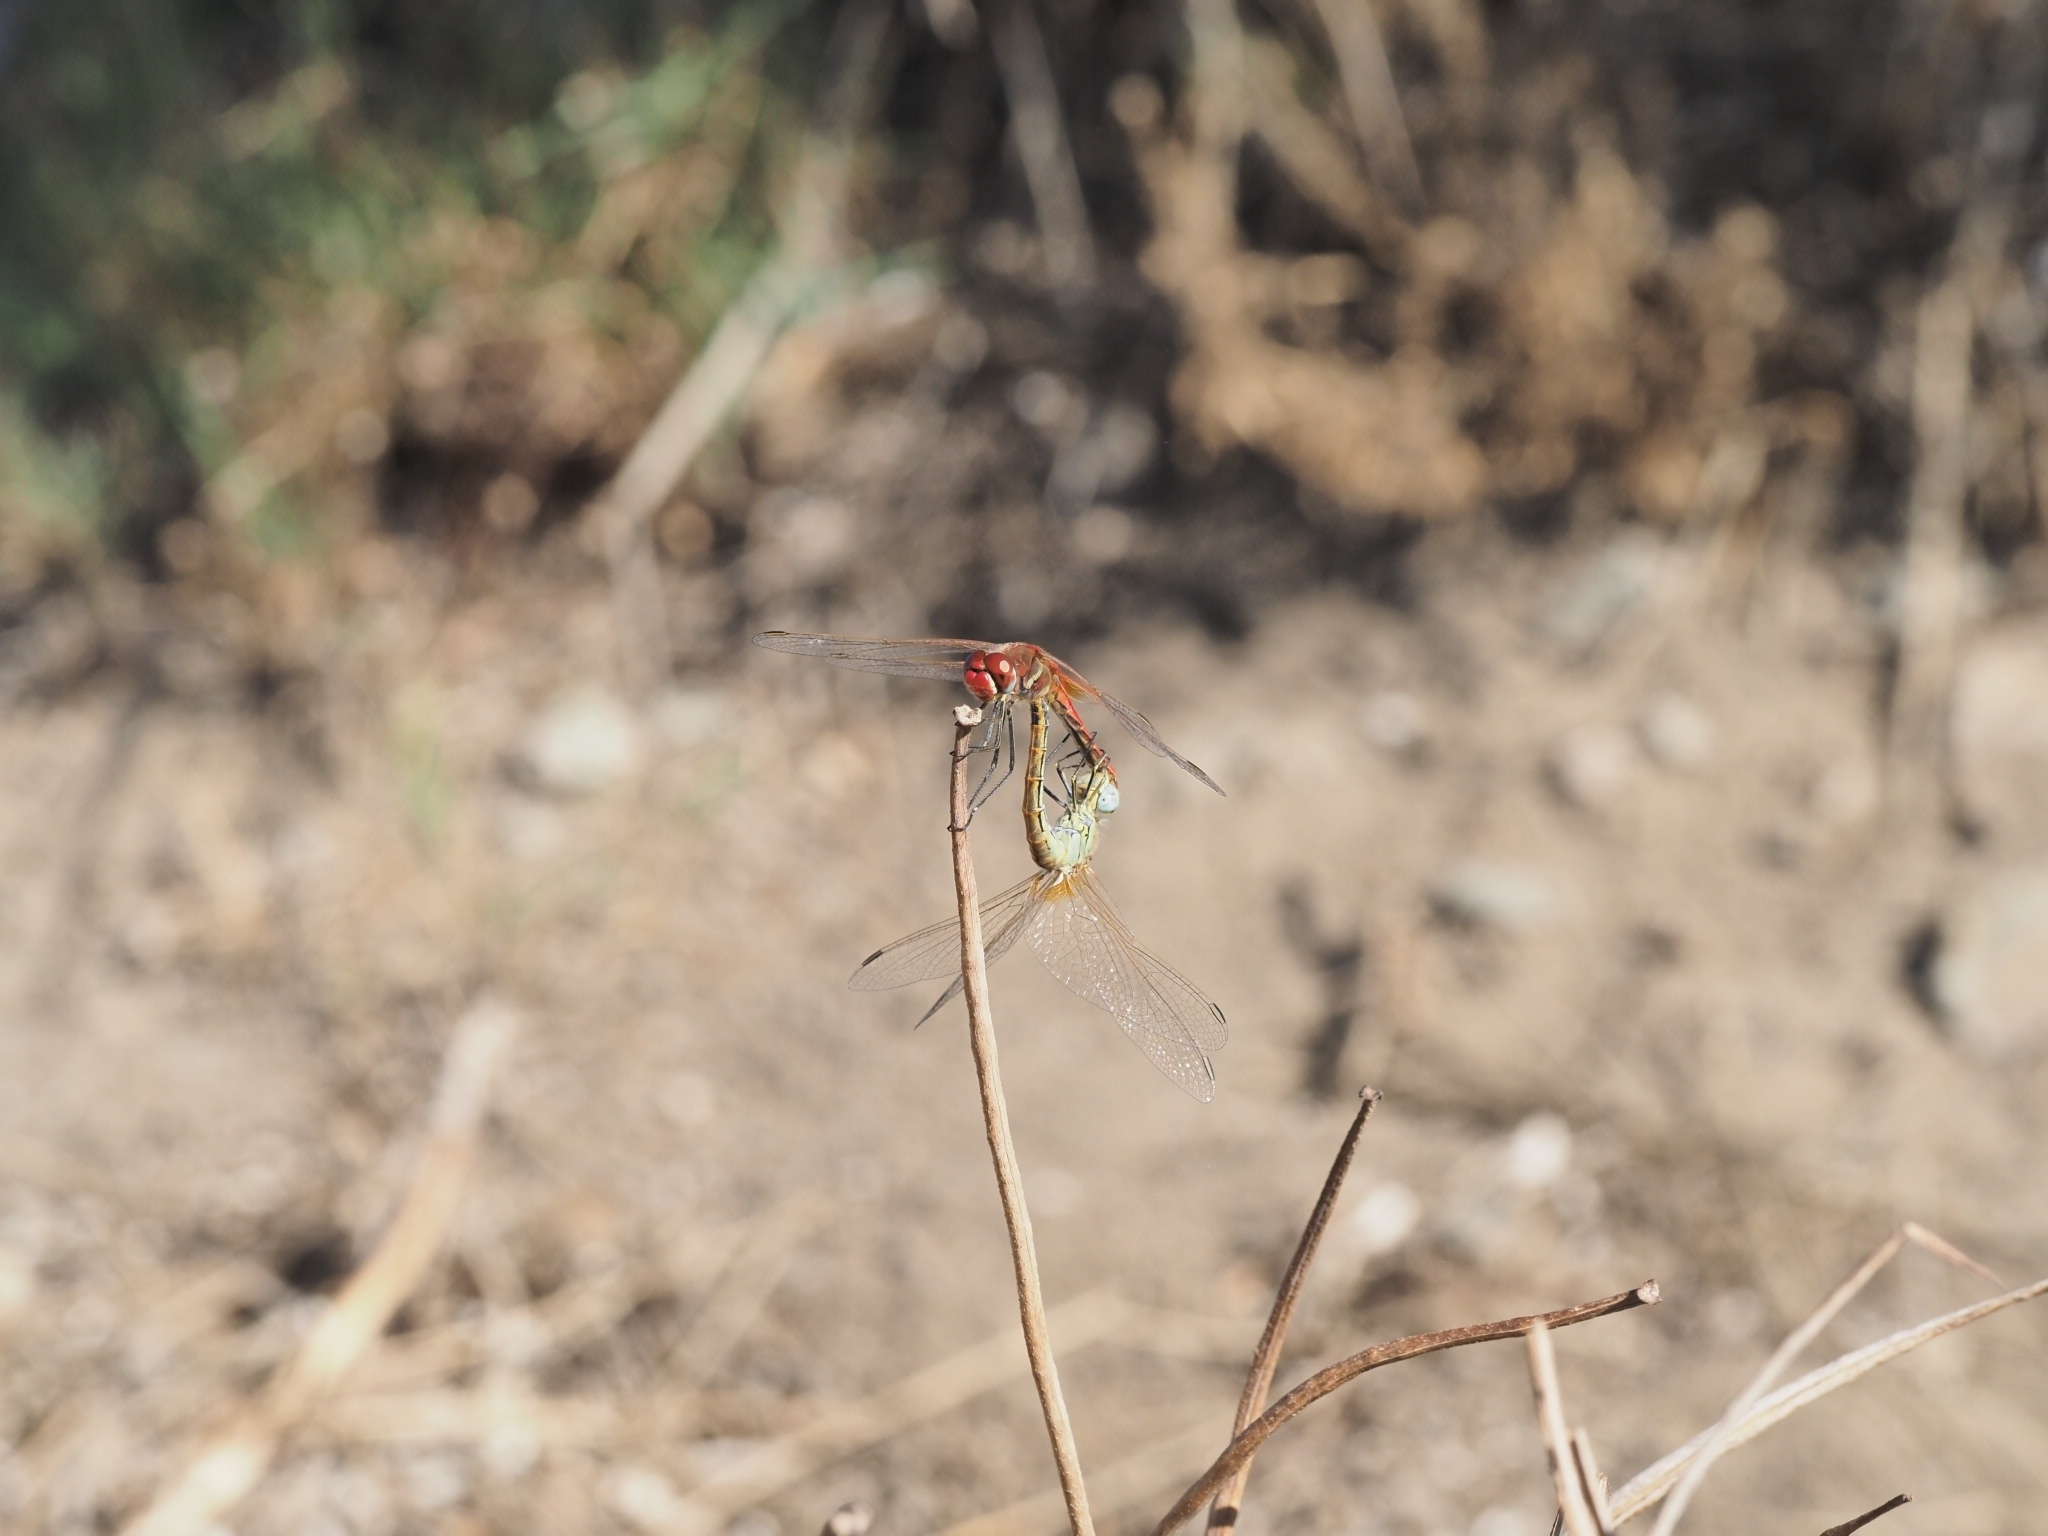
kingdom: Animalia
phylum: Arthropoda
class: Insecta
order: Odonata
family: Libellulidae
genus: Sympetrum
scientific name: Sympetrum fonscolombii
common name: Red-veined darter
